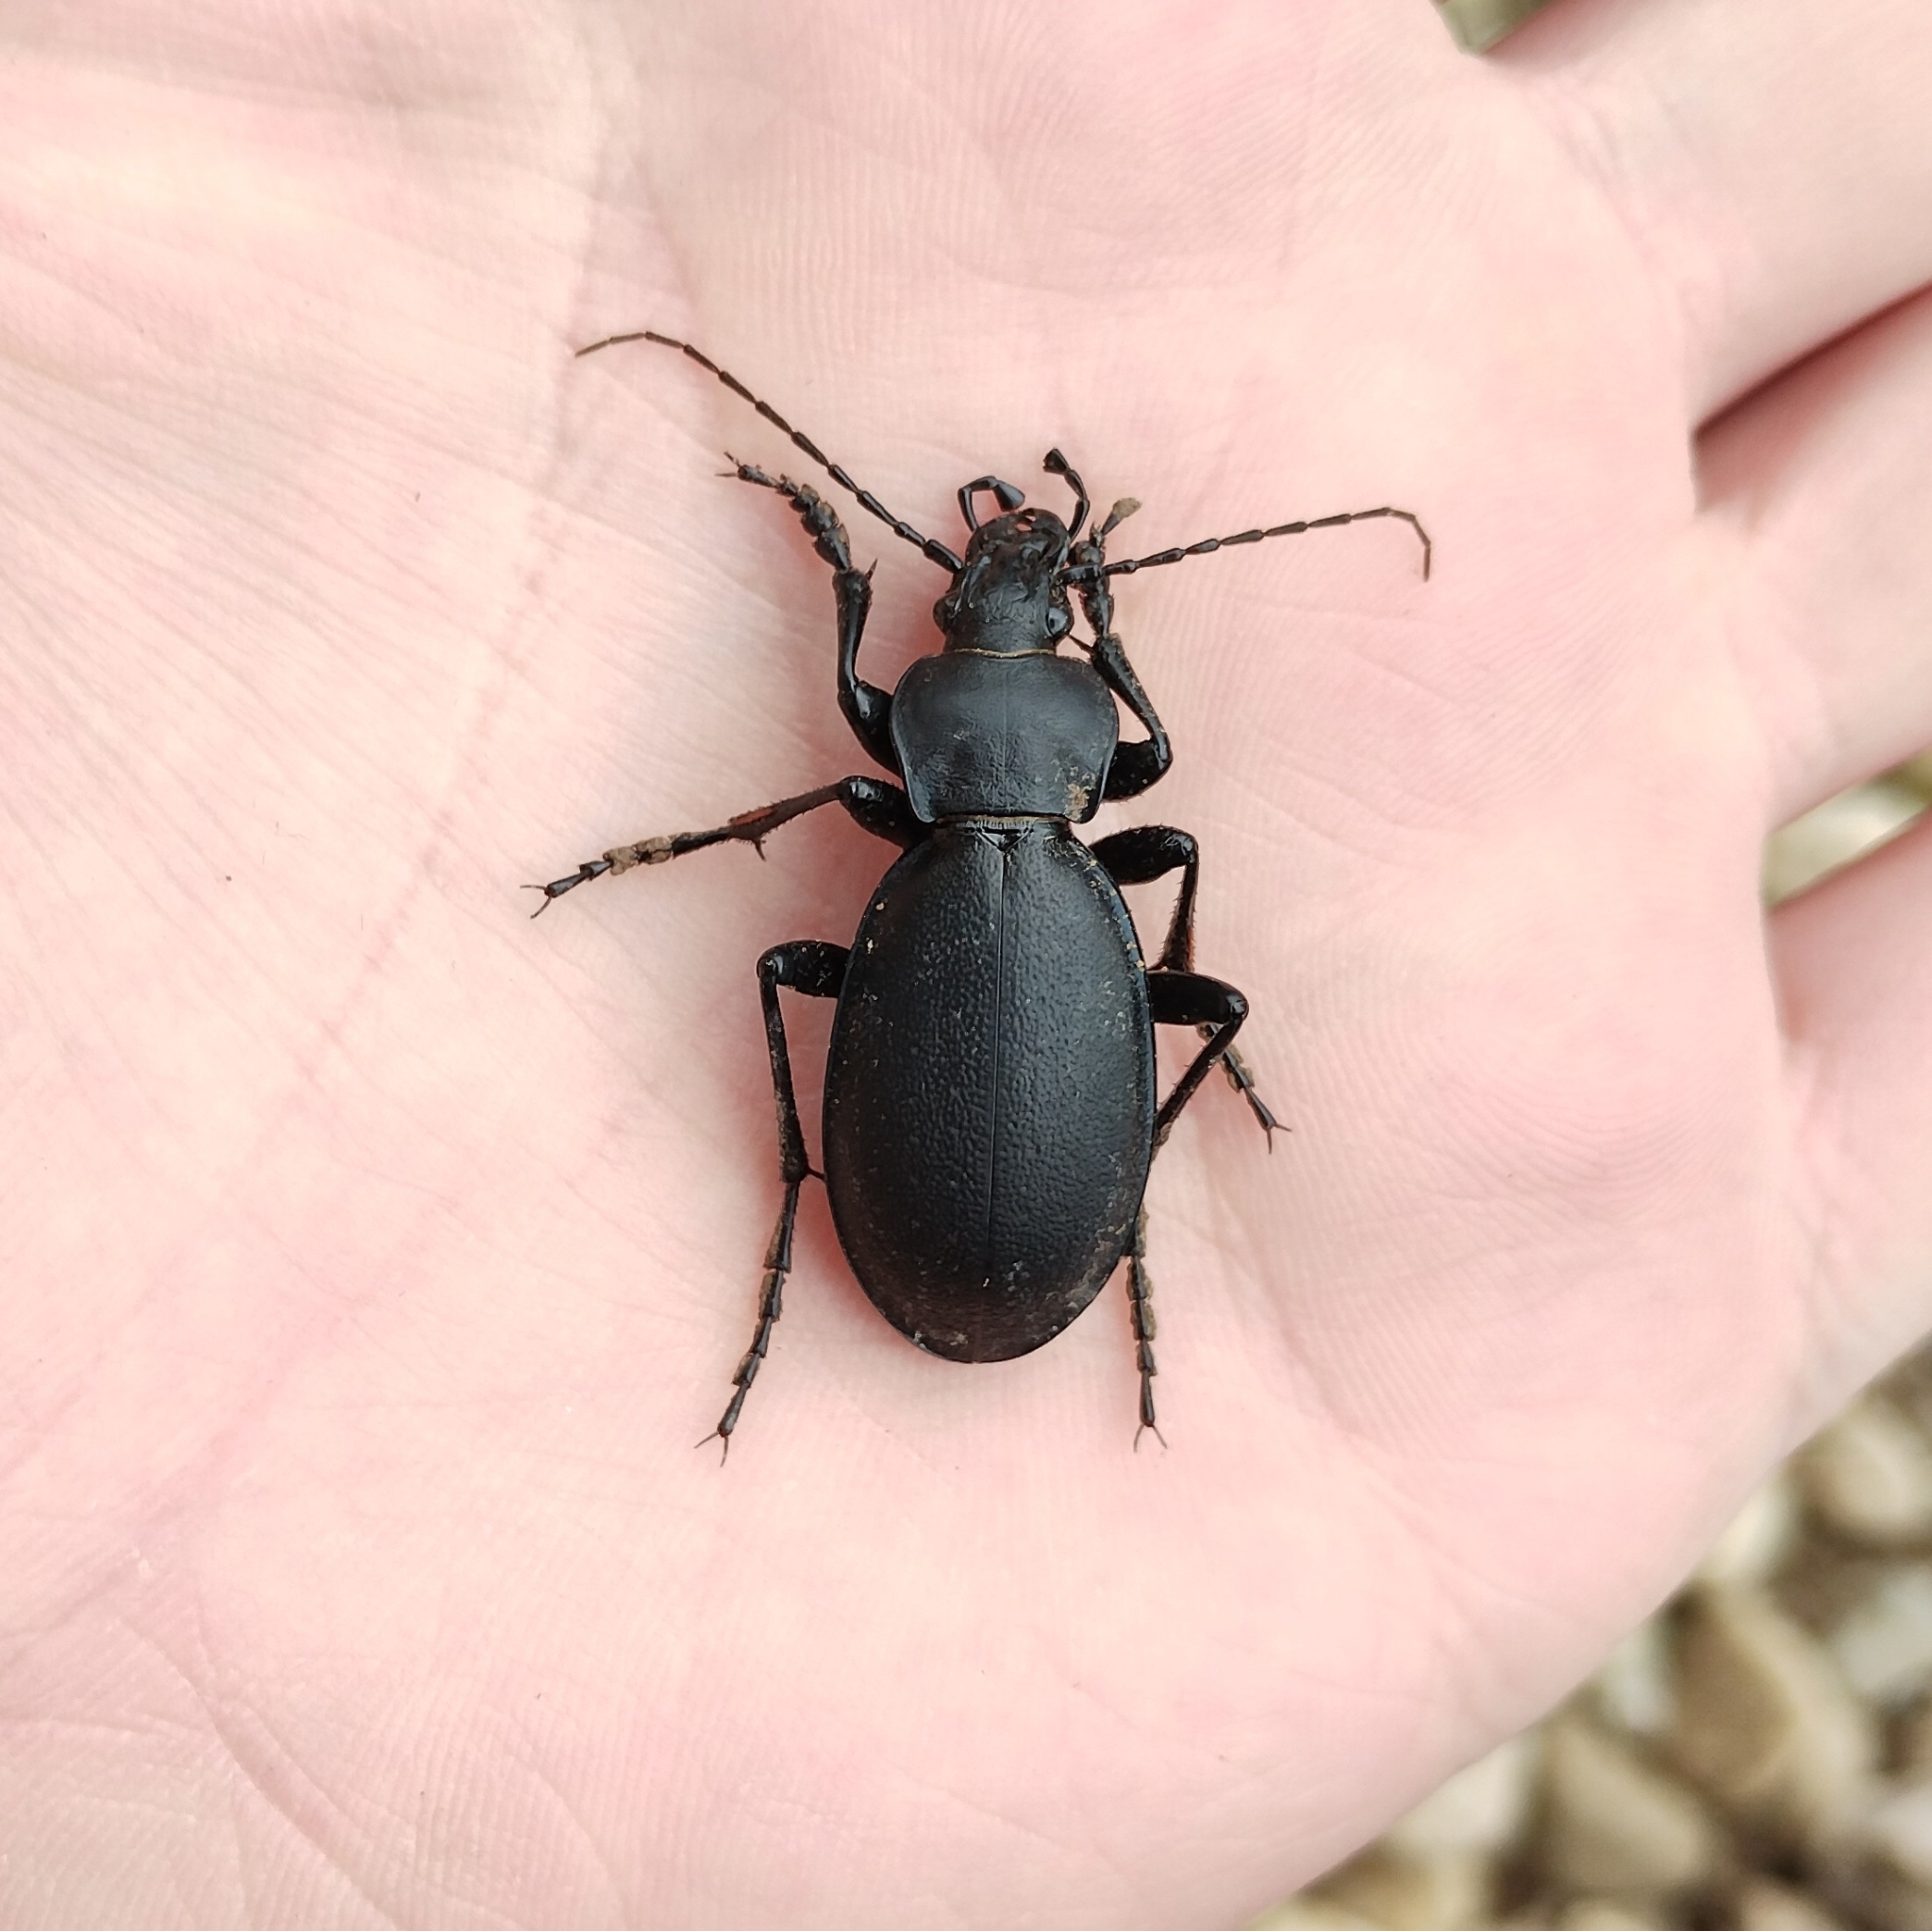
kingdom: Animalia
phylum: Arthropoda
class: Insecta
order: Coleoptera
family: Carabidae
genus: Carabus
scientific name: Carabus coriaceus
